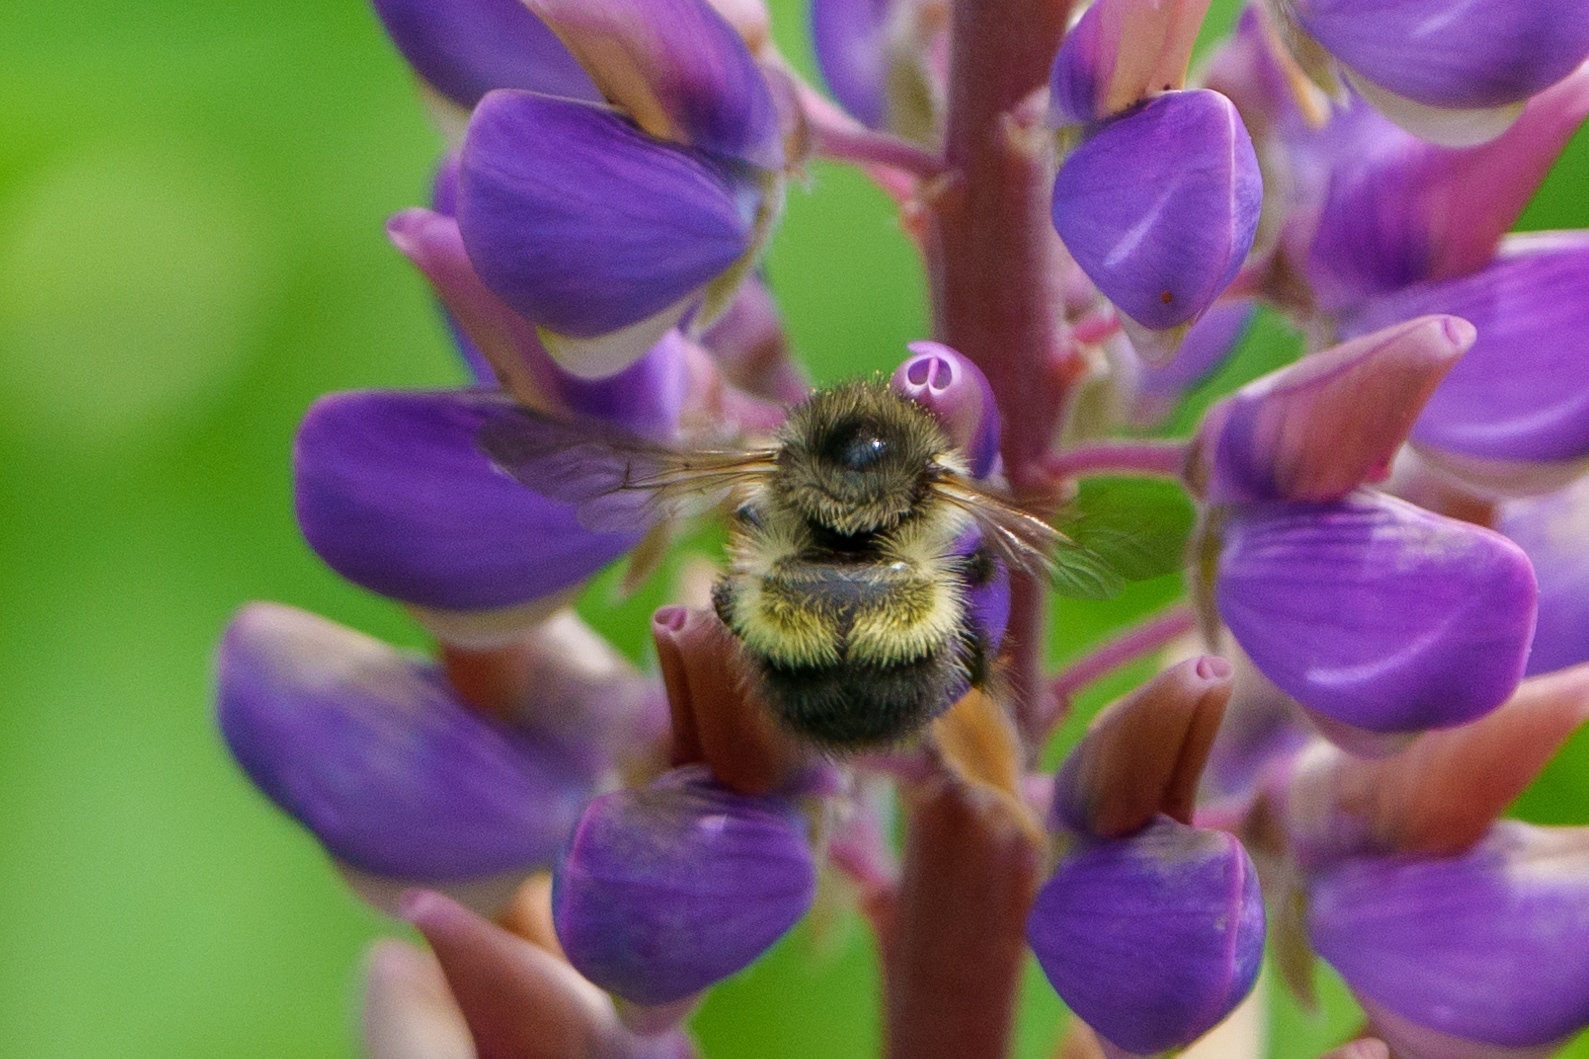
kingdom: Animalia
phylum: Arthropoda
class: Insecta
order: Hymenoptera
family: Apidae
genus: Bombus
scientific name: Bombus flavifrons
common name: Yellow head bumble bee
